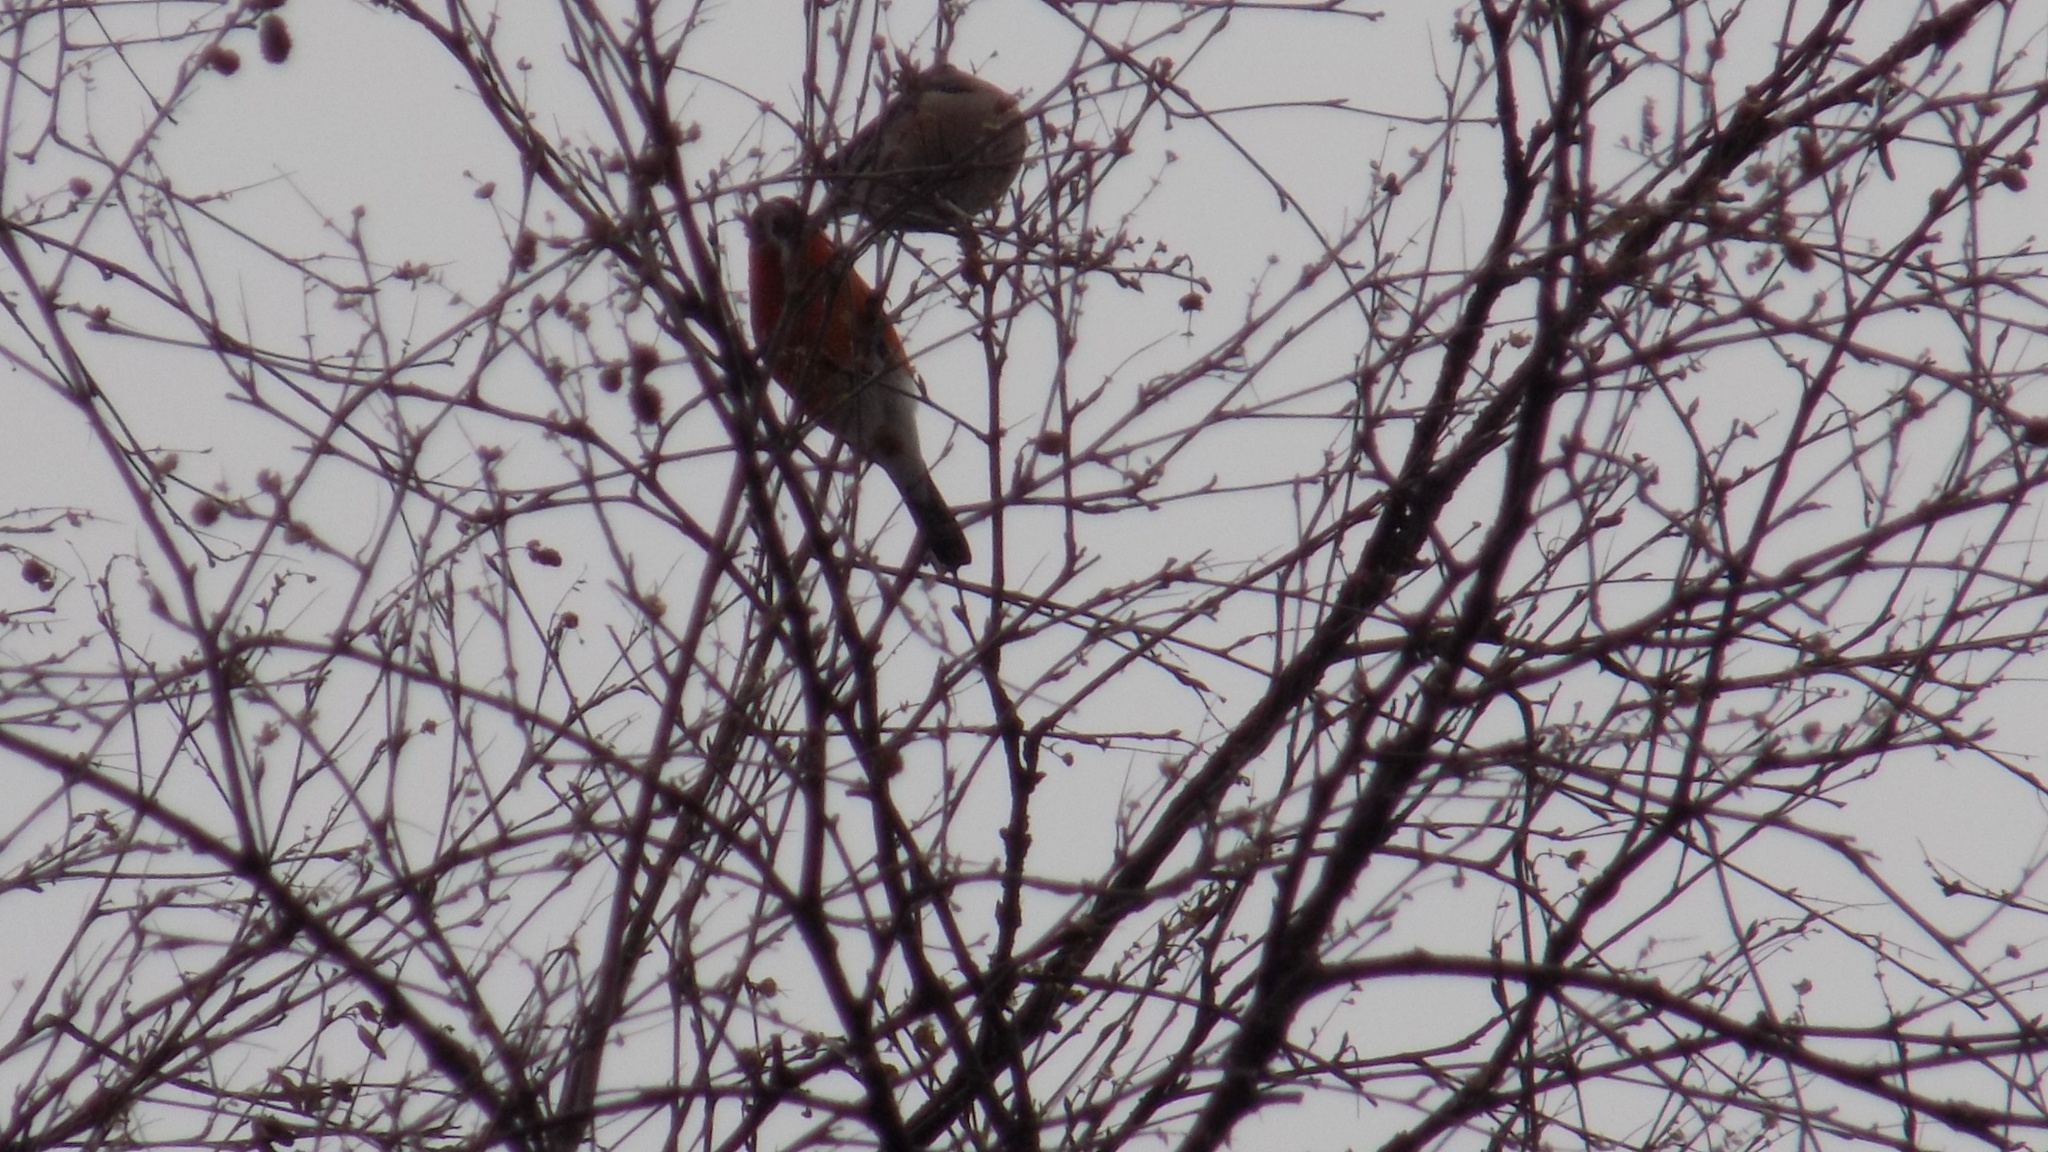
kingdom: Animalia
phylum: Chordata
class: Aves
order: Passeriformes
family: Fringillidae
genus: Pyrrhula
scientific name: Pyrrhula pyrrhula
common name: Eurasian bullfinch
